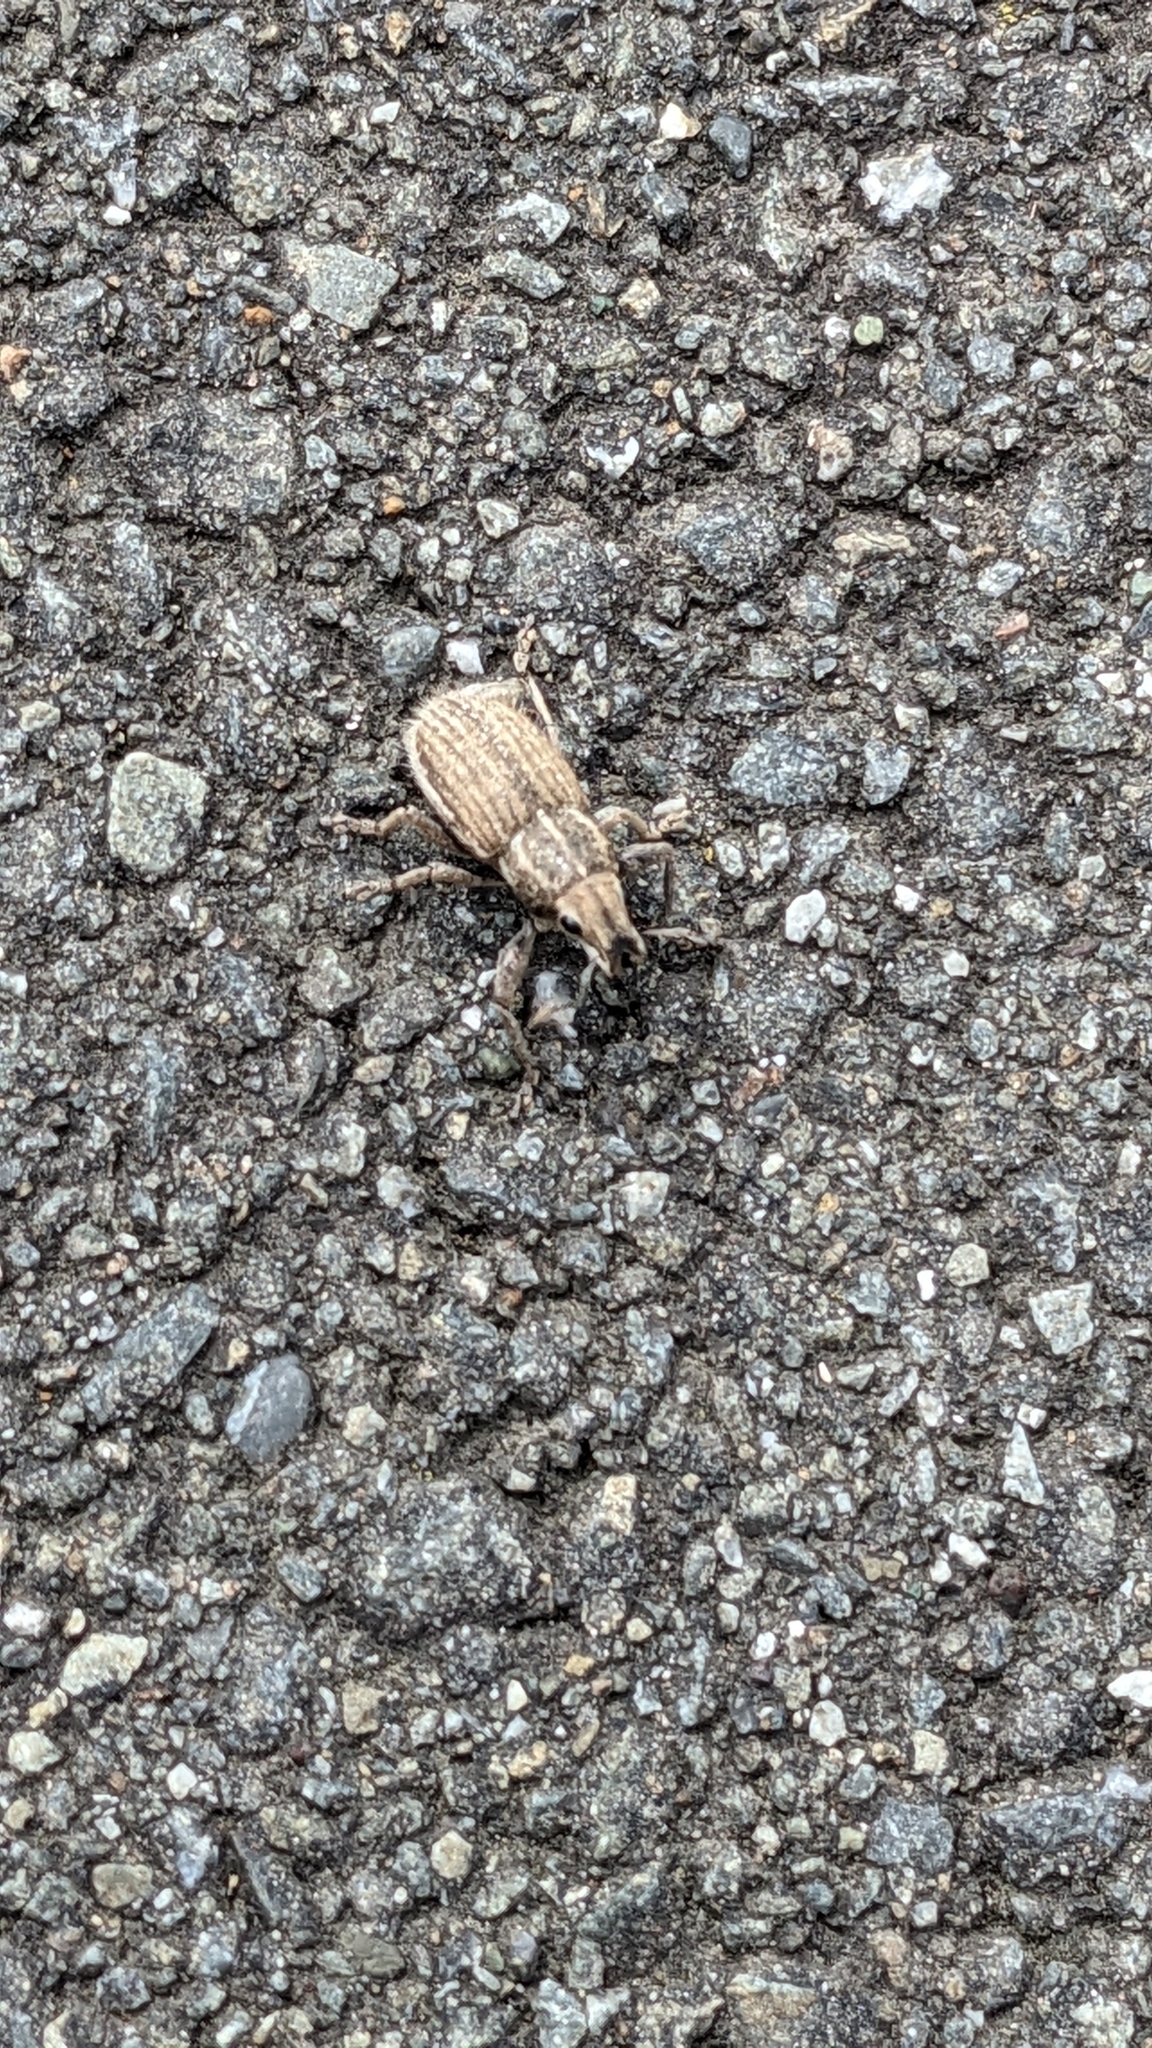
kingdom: Animalia
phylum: Arthropoda
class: Insecta
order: Coleoptera
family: Curculionidae
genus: Naupactus
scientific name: Naupactus leucoloma
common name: Whitefringed beetle
